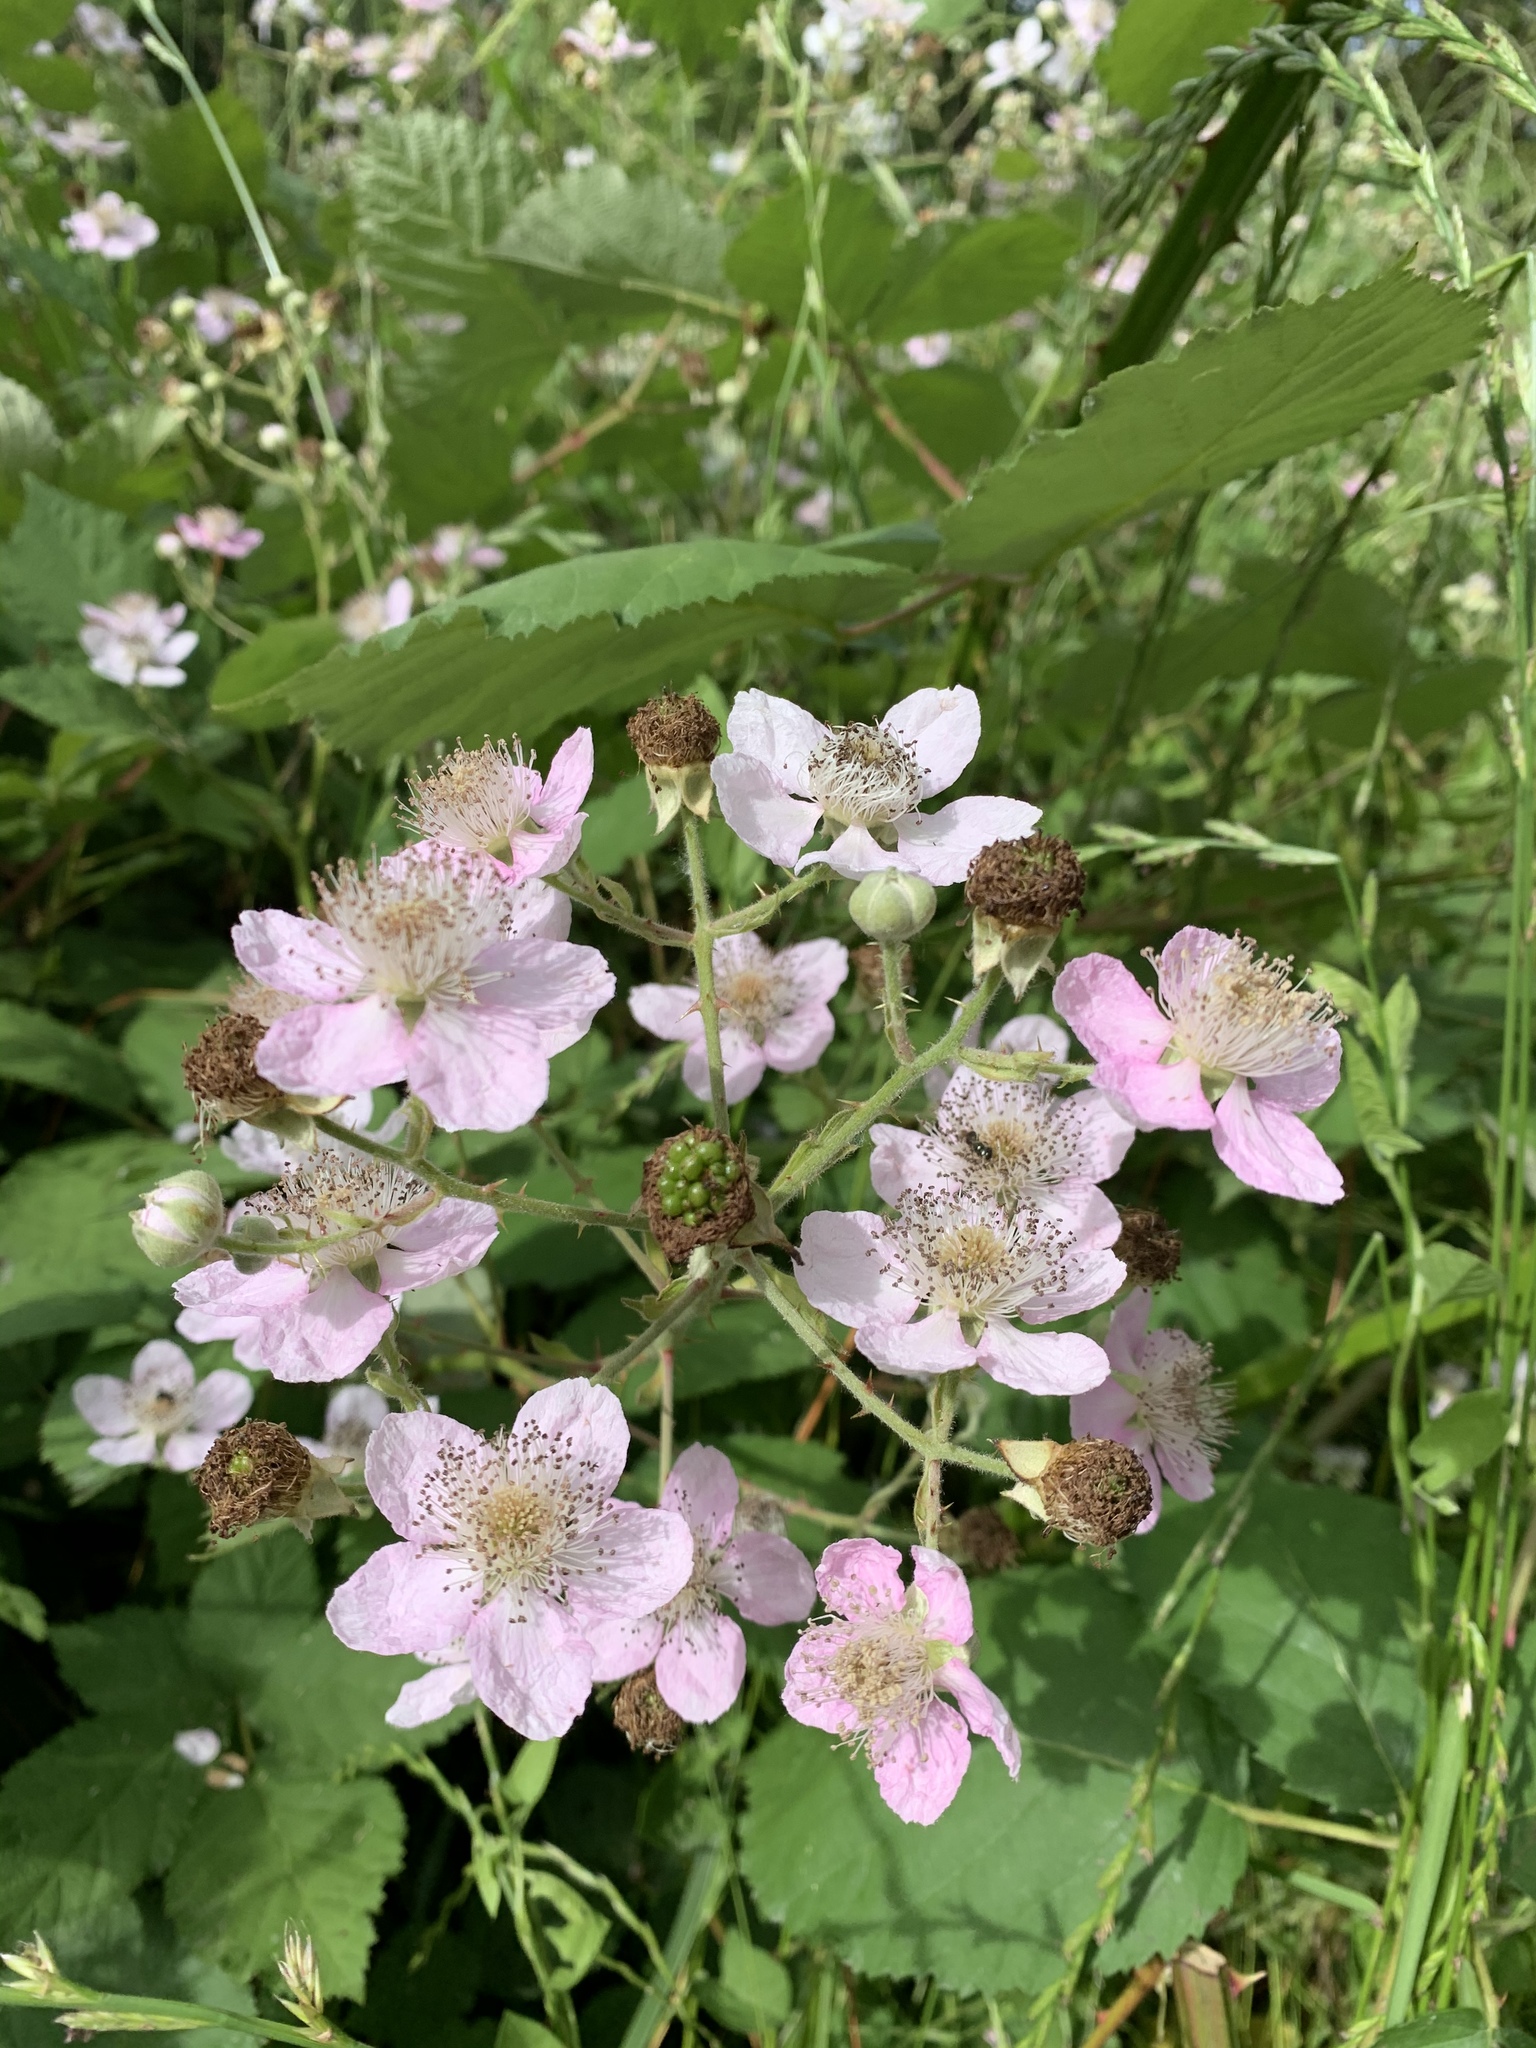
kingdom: Plantae
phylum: Tracheophyta
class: Magnoliopsida
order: Rosales
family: Rosaceae
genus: Rubus
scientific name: Rubus armeniacus
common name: Himalayan blackberry
